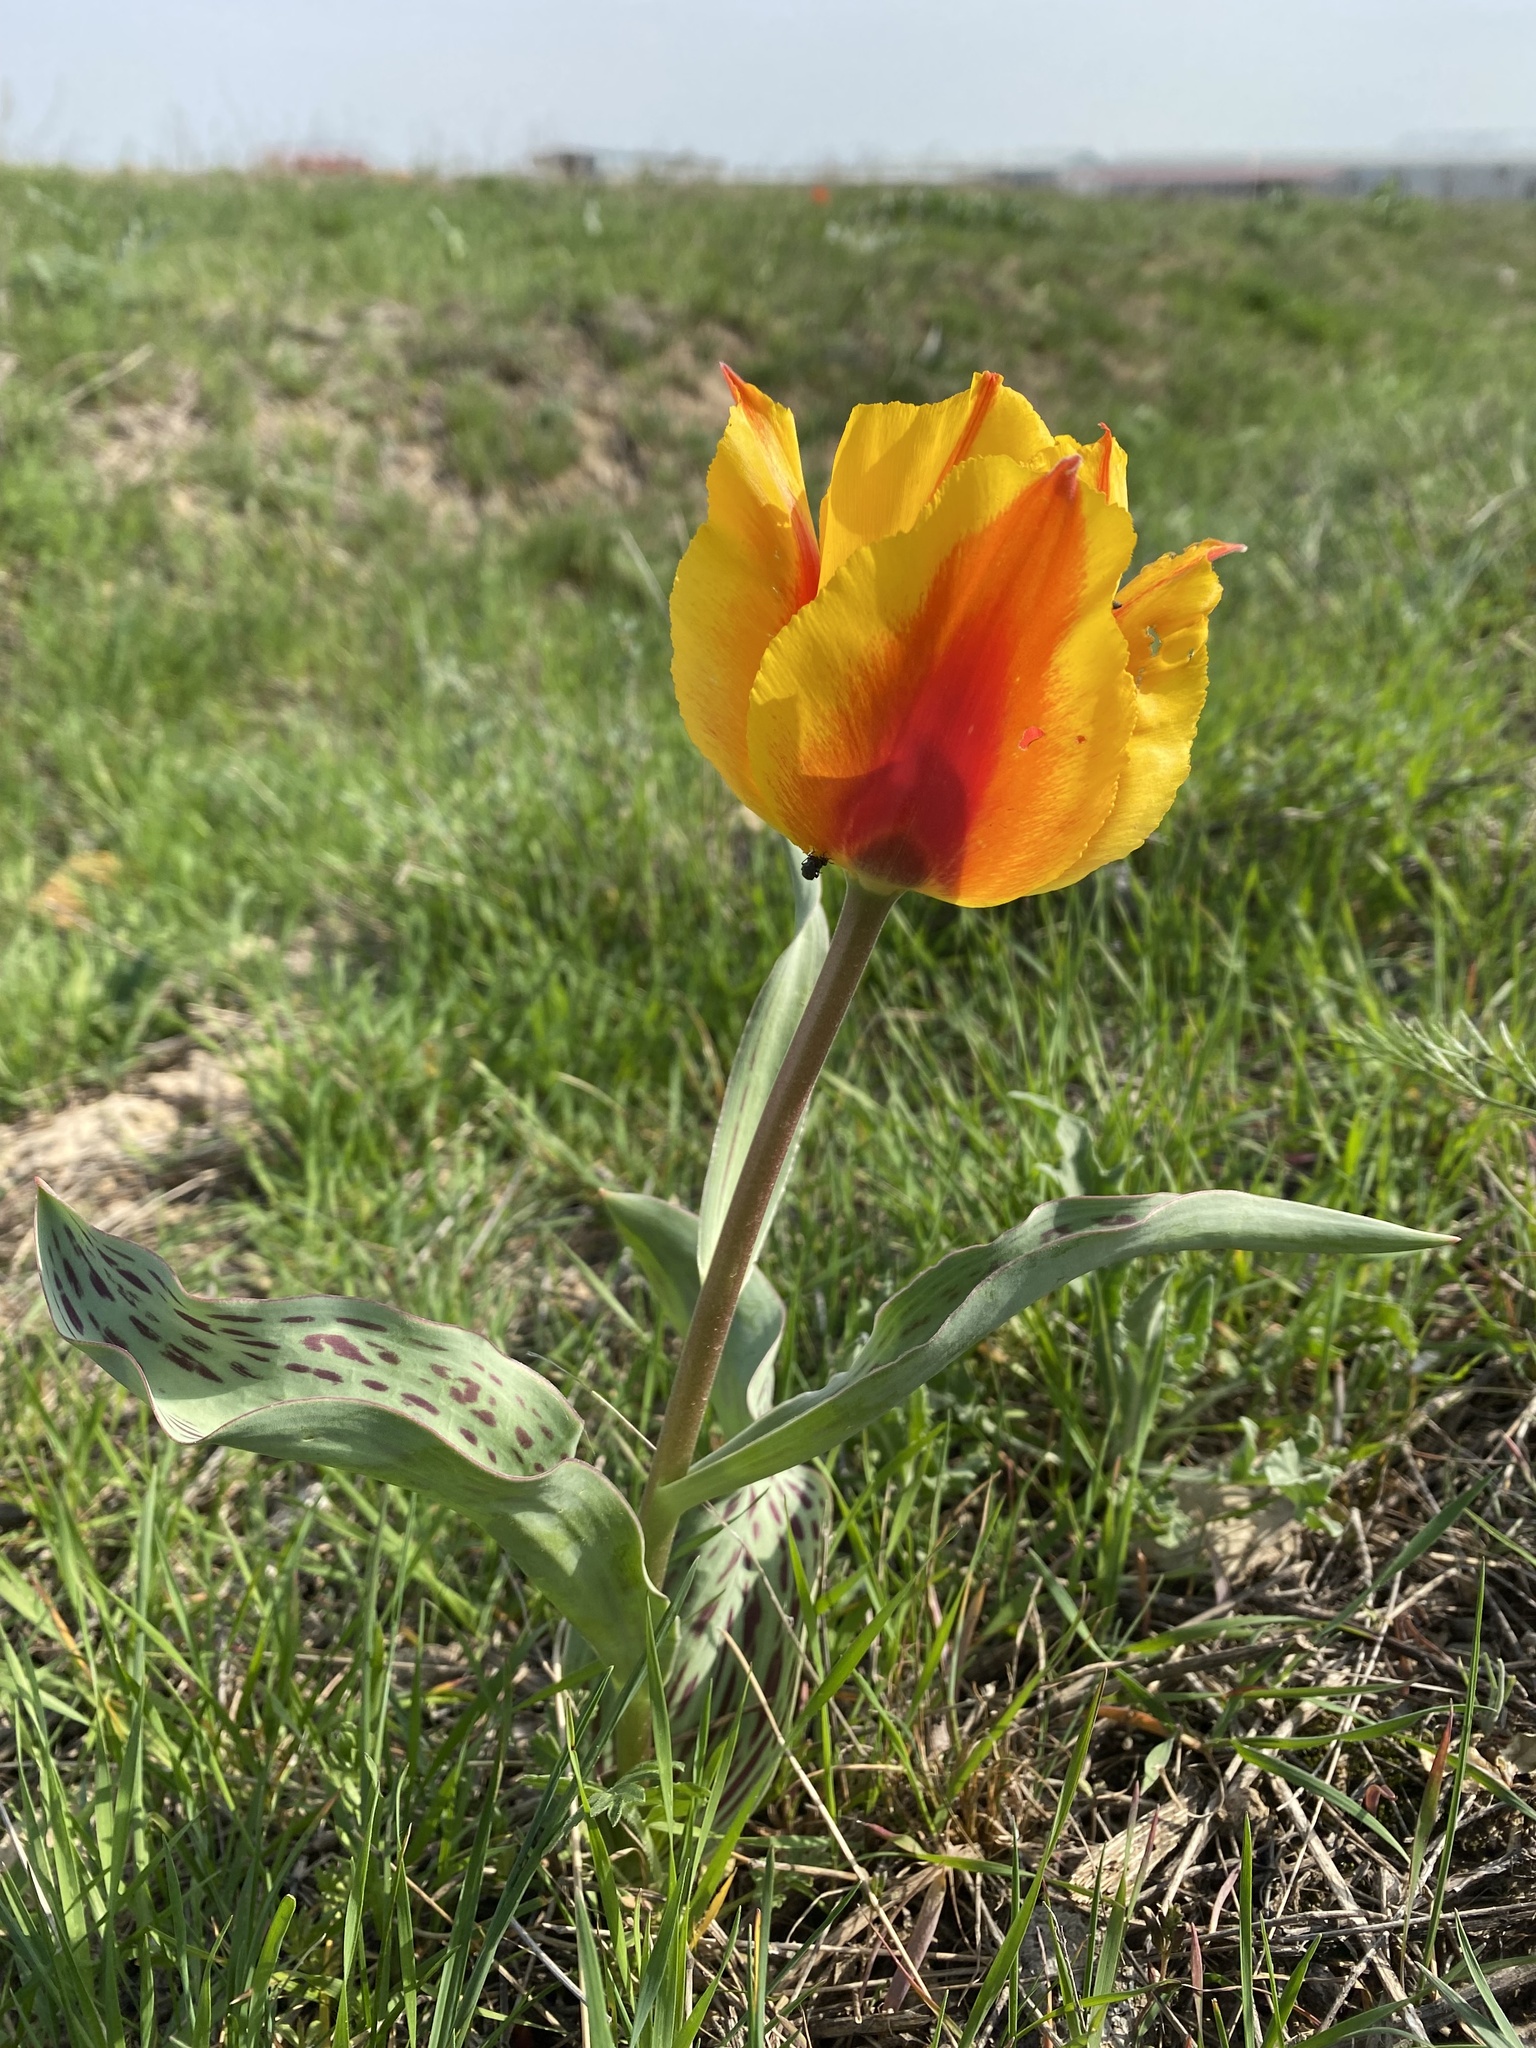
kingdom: Plantae
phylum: Tracheophyta
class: Liliopsida
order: Liliales
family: Liliaceae
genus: Tulipa
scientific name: Tulipa greigii
